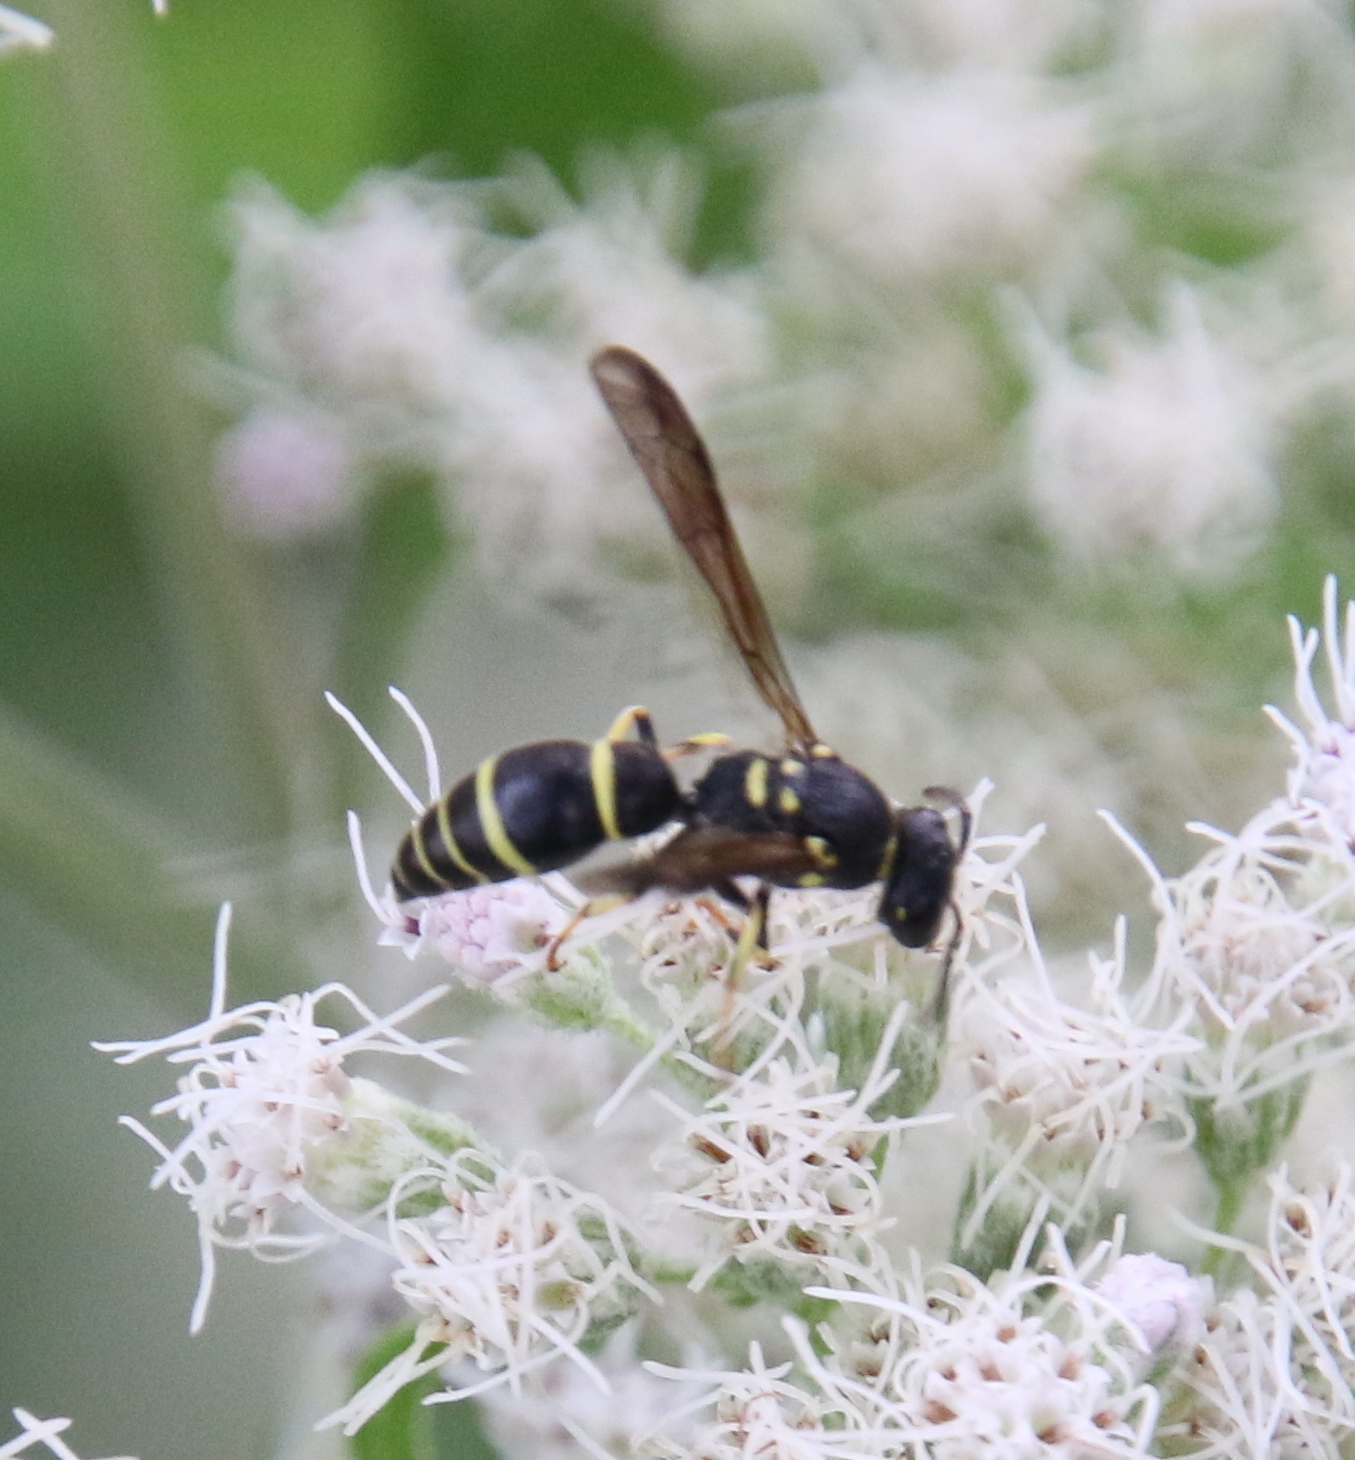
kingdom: Animalia
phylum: Arthropoda
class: Insecta
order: Hymenoptera
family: Vespidae
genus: Ancistrocerus
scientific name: Ancistrocerus adiabatus
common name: Bramble mason wasp
